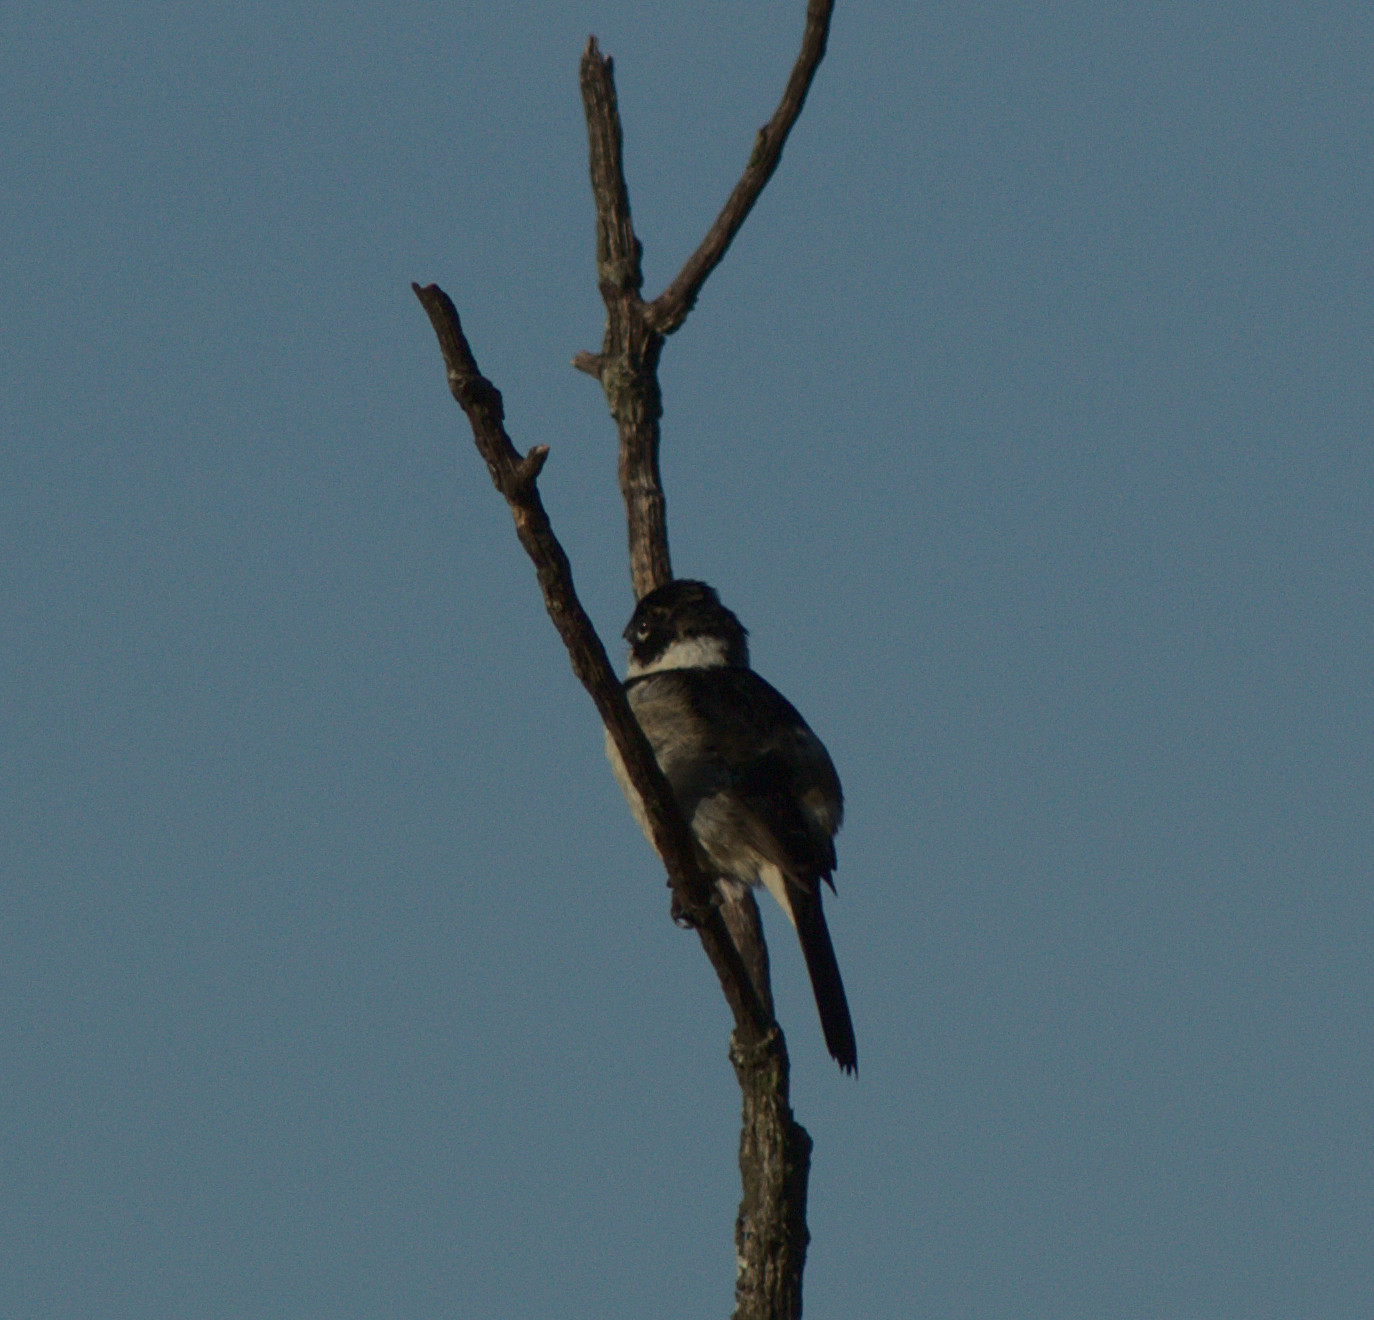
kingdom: Animalia
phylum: Chordata
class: Aves
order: Passeriformes
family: Thraupidae
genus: Sporophila
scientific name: Sporophila morelleti
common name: Morelet's seedeater
